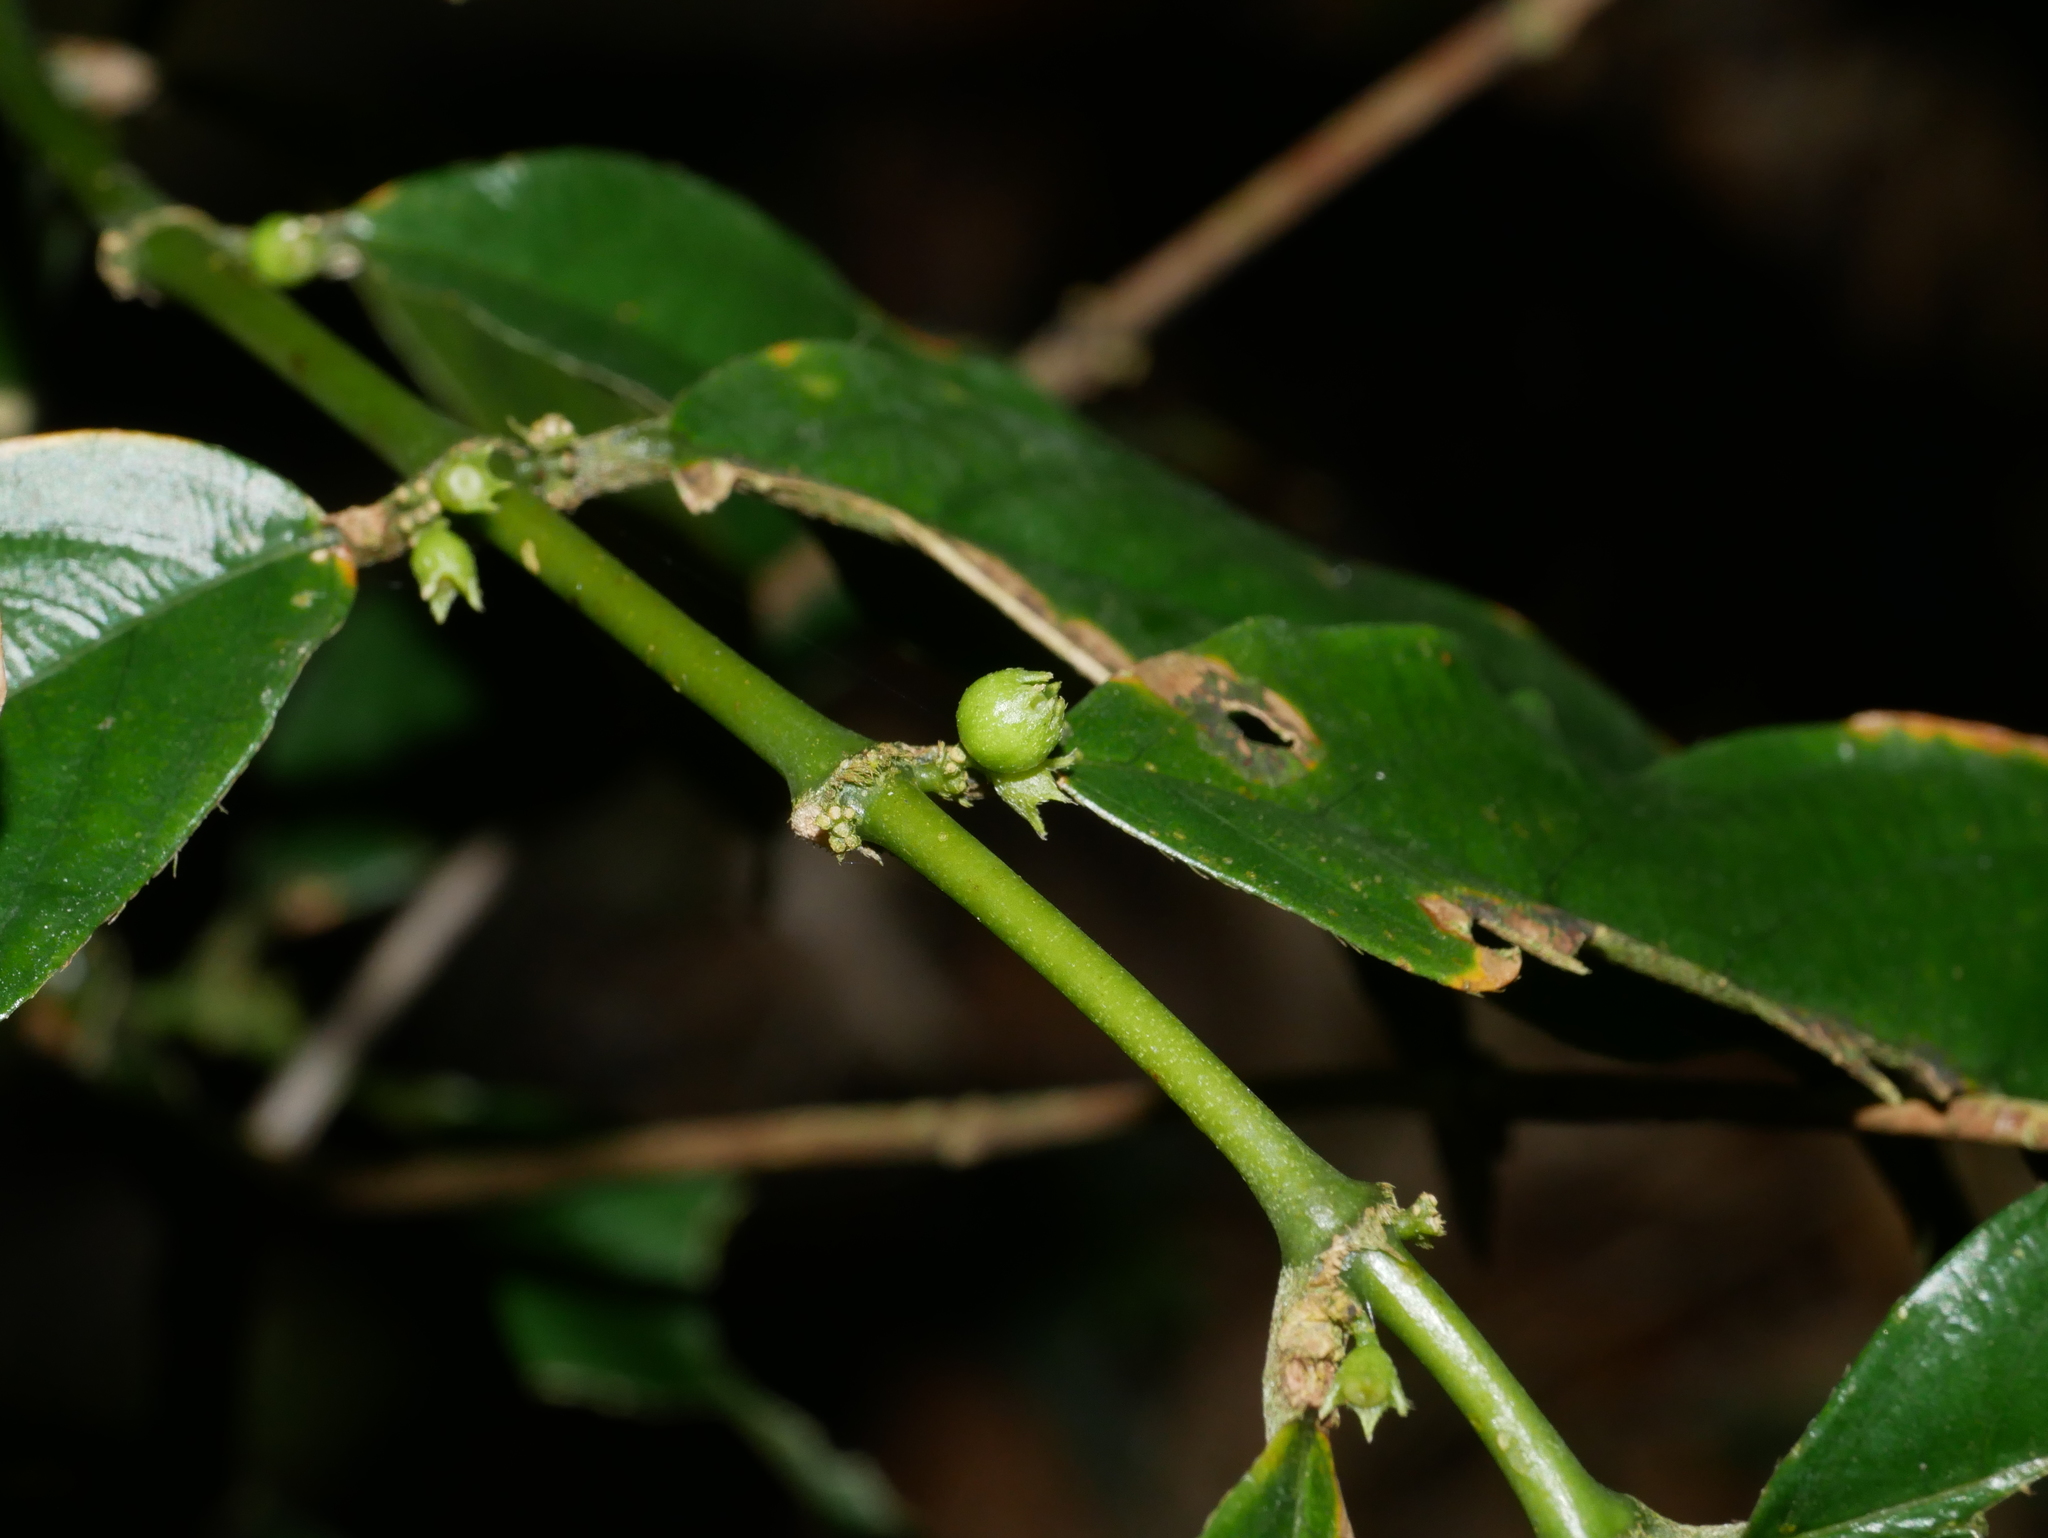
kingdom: Plantae
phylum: Tracheophyta
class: Magnoliopsida
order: Gentianales
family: Rubiaceae
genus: Lasianthus
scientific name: Lasianthus micranthus
